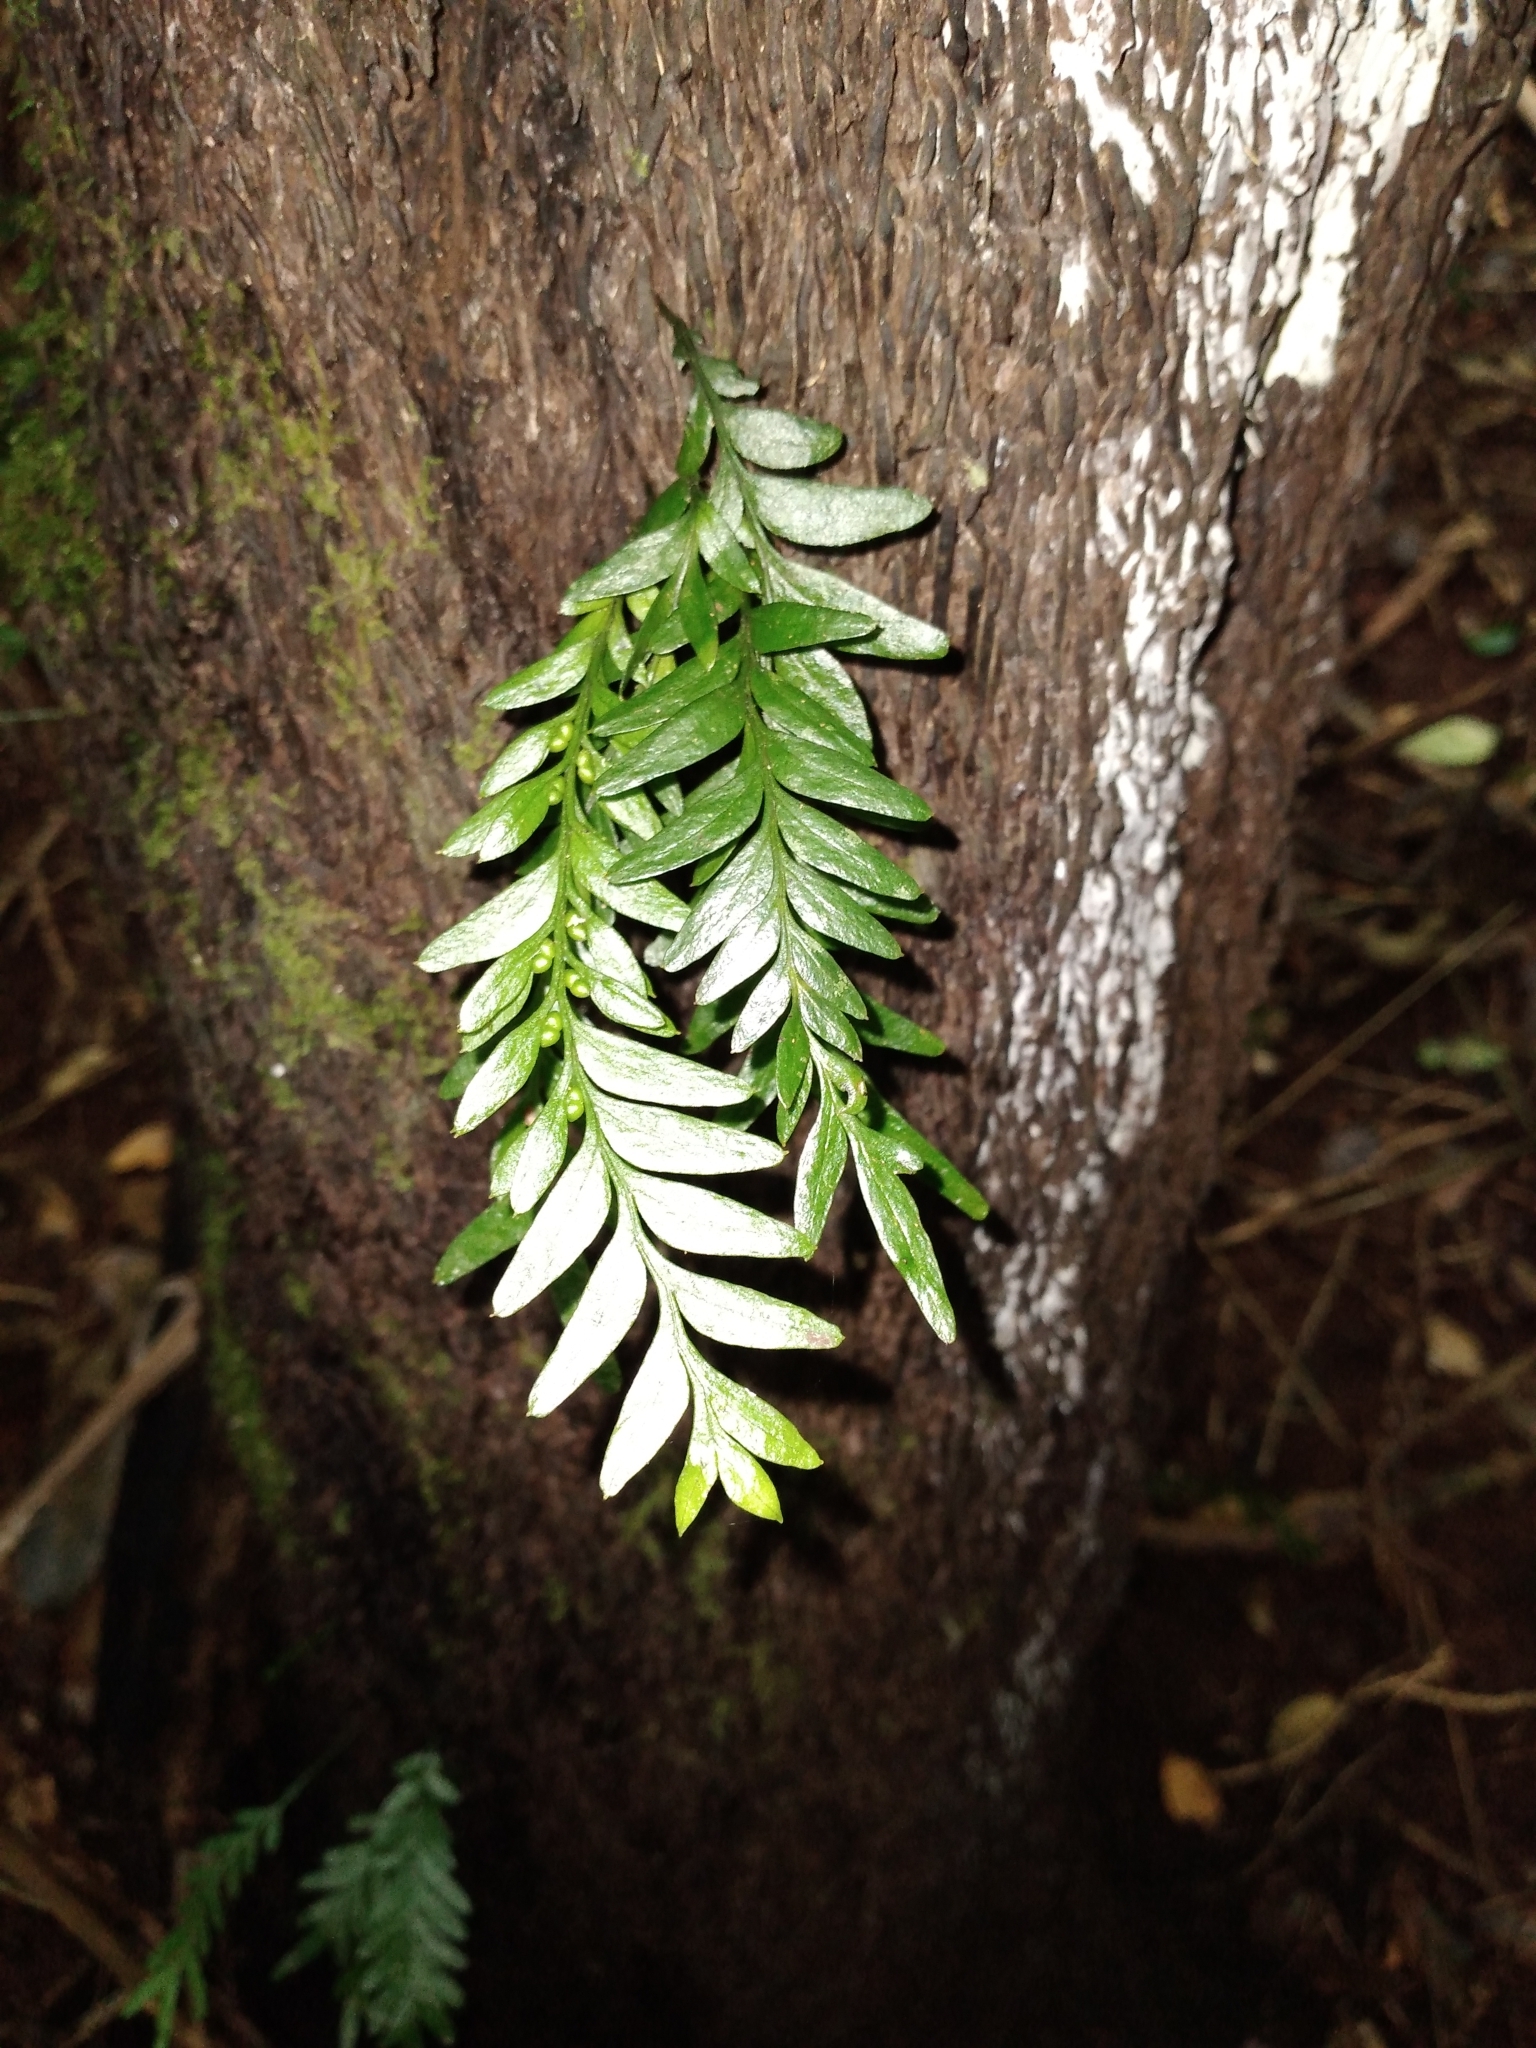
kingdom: Plantae
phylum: Tracheophyta
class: Polypodiopsida
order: Psilotales
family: Psilotaceae
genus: Tmesipteris
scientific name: Tmesipteris norfolkensis
